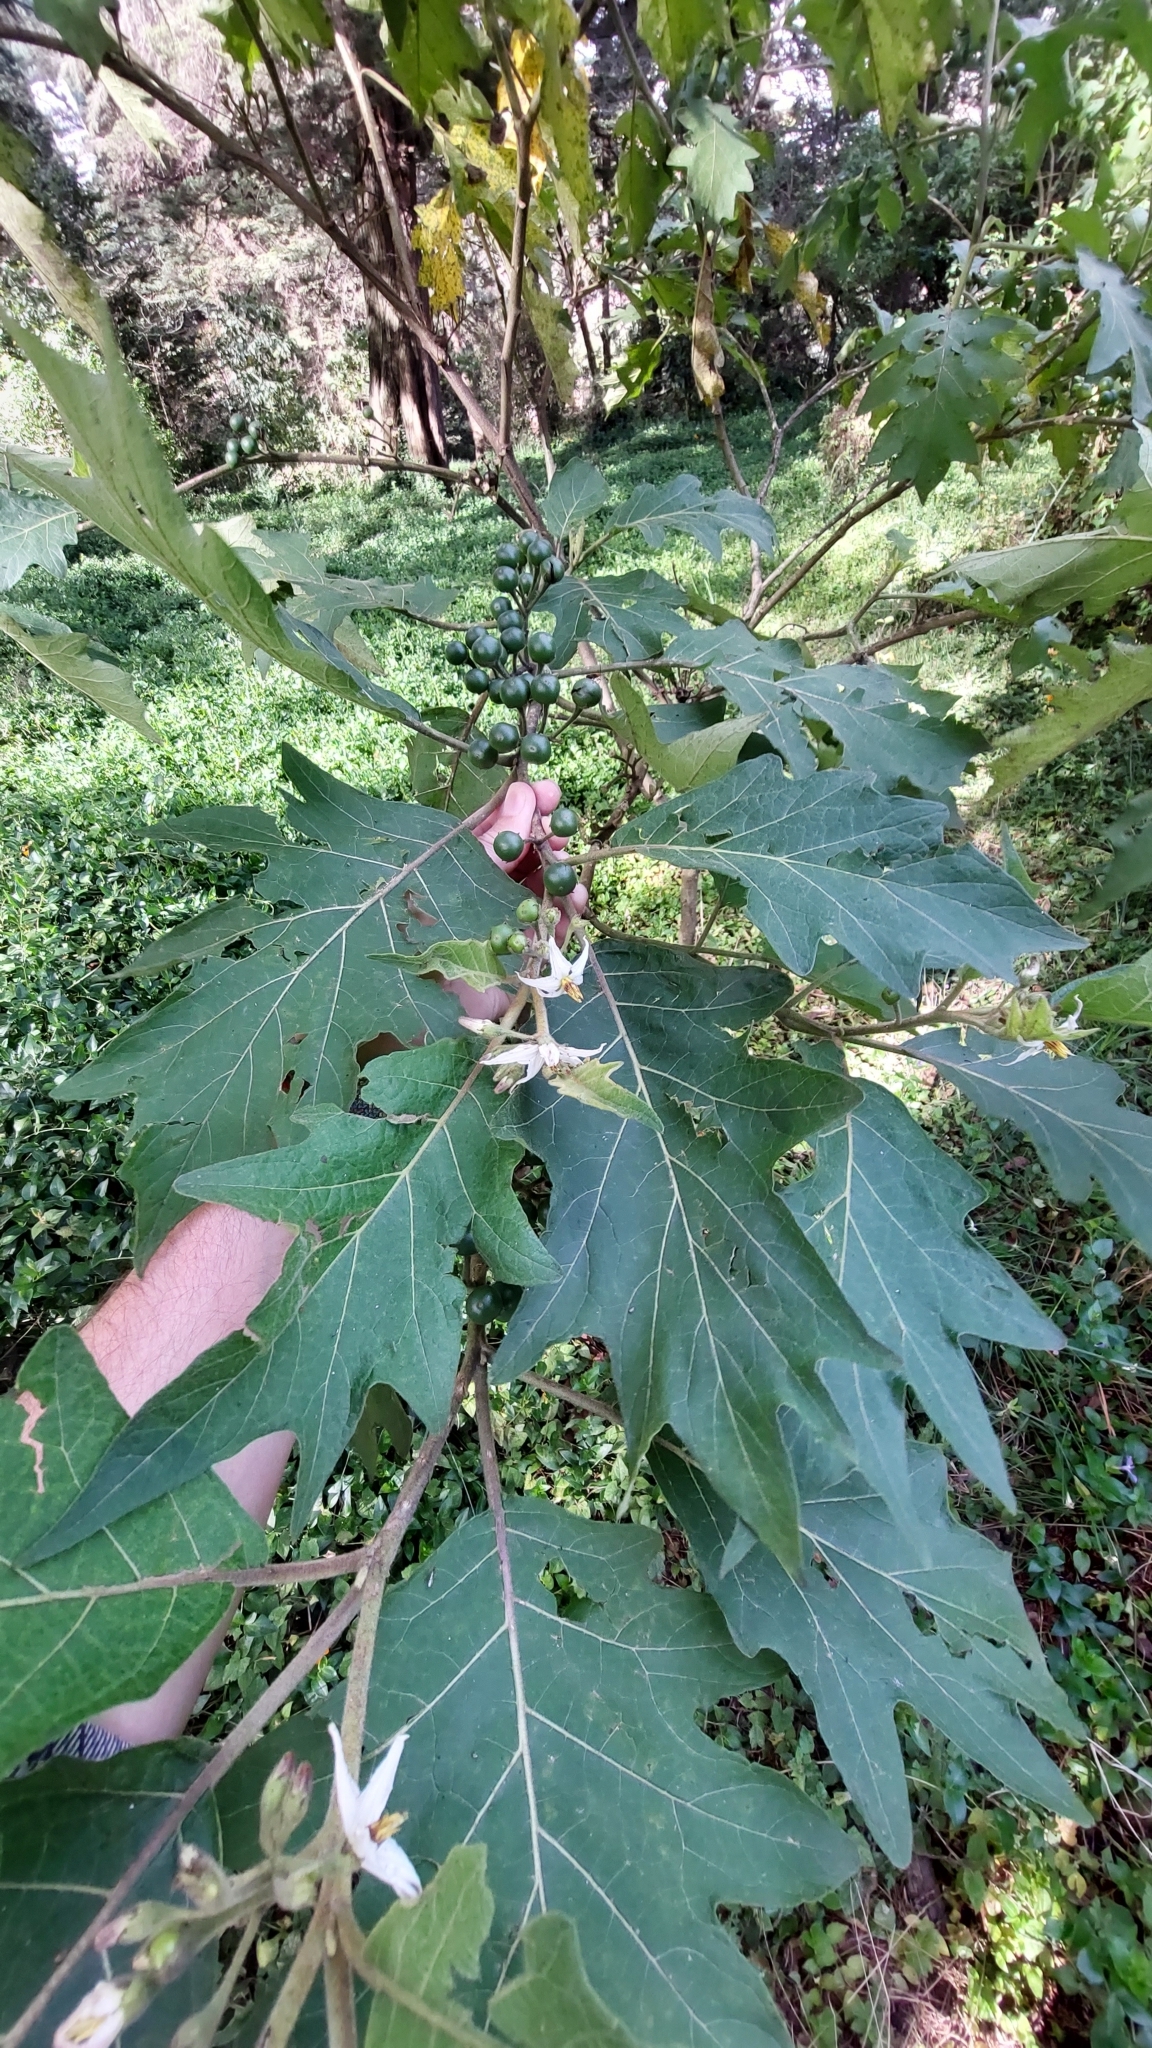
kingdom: Plantae
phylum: Tracheophyta
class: Magnoliopsida
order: Solanales
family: Solanaceae
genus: Solanum
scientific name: Solanum stellatiglandulosum
